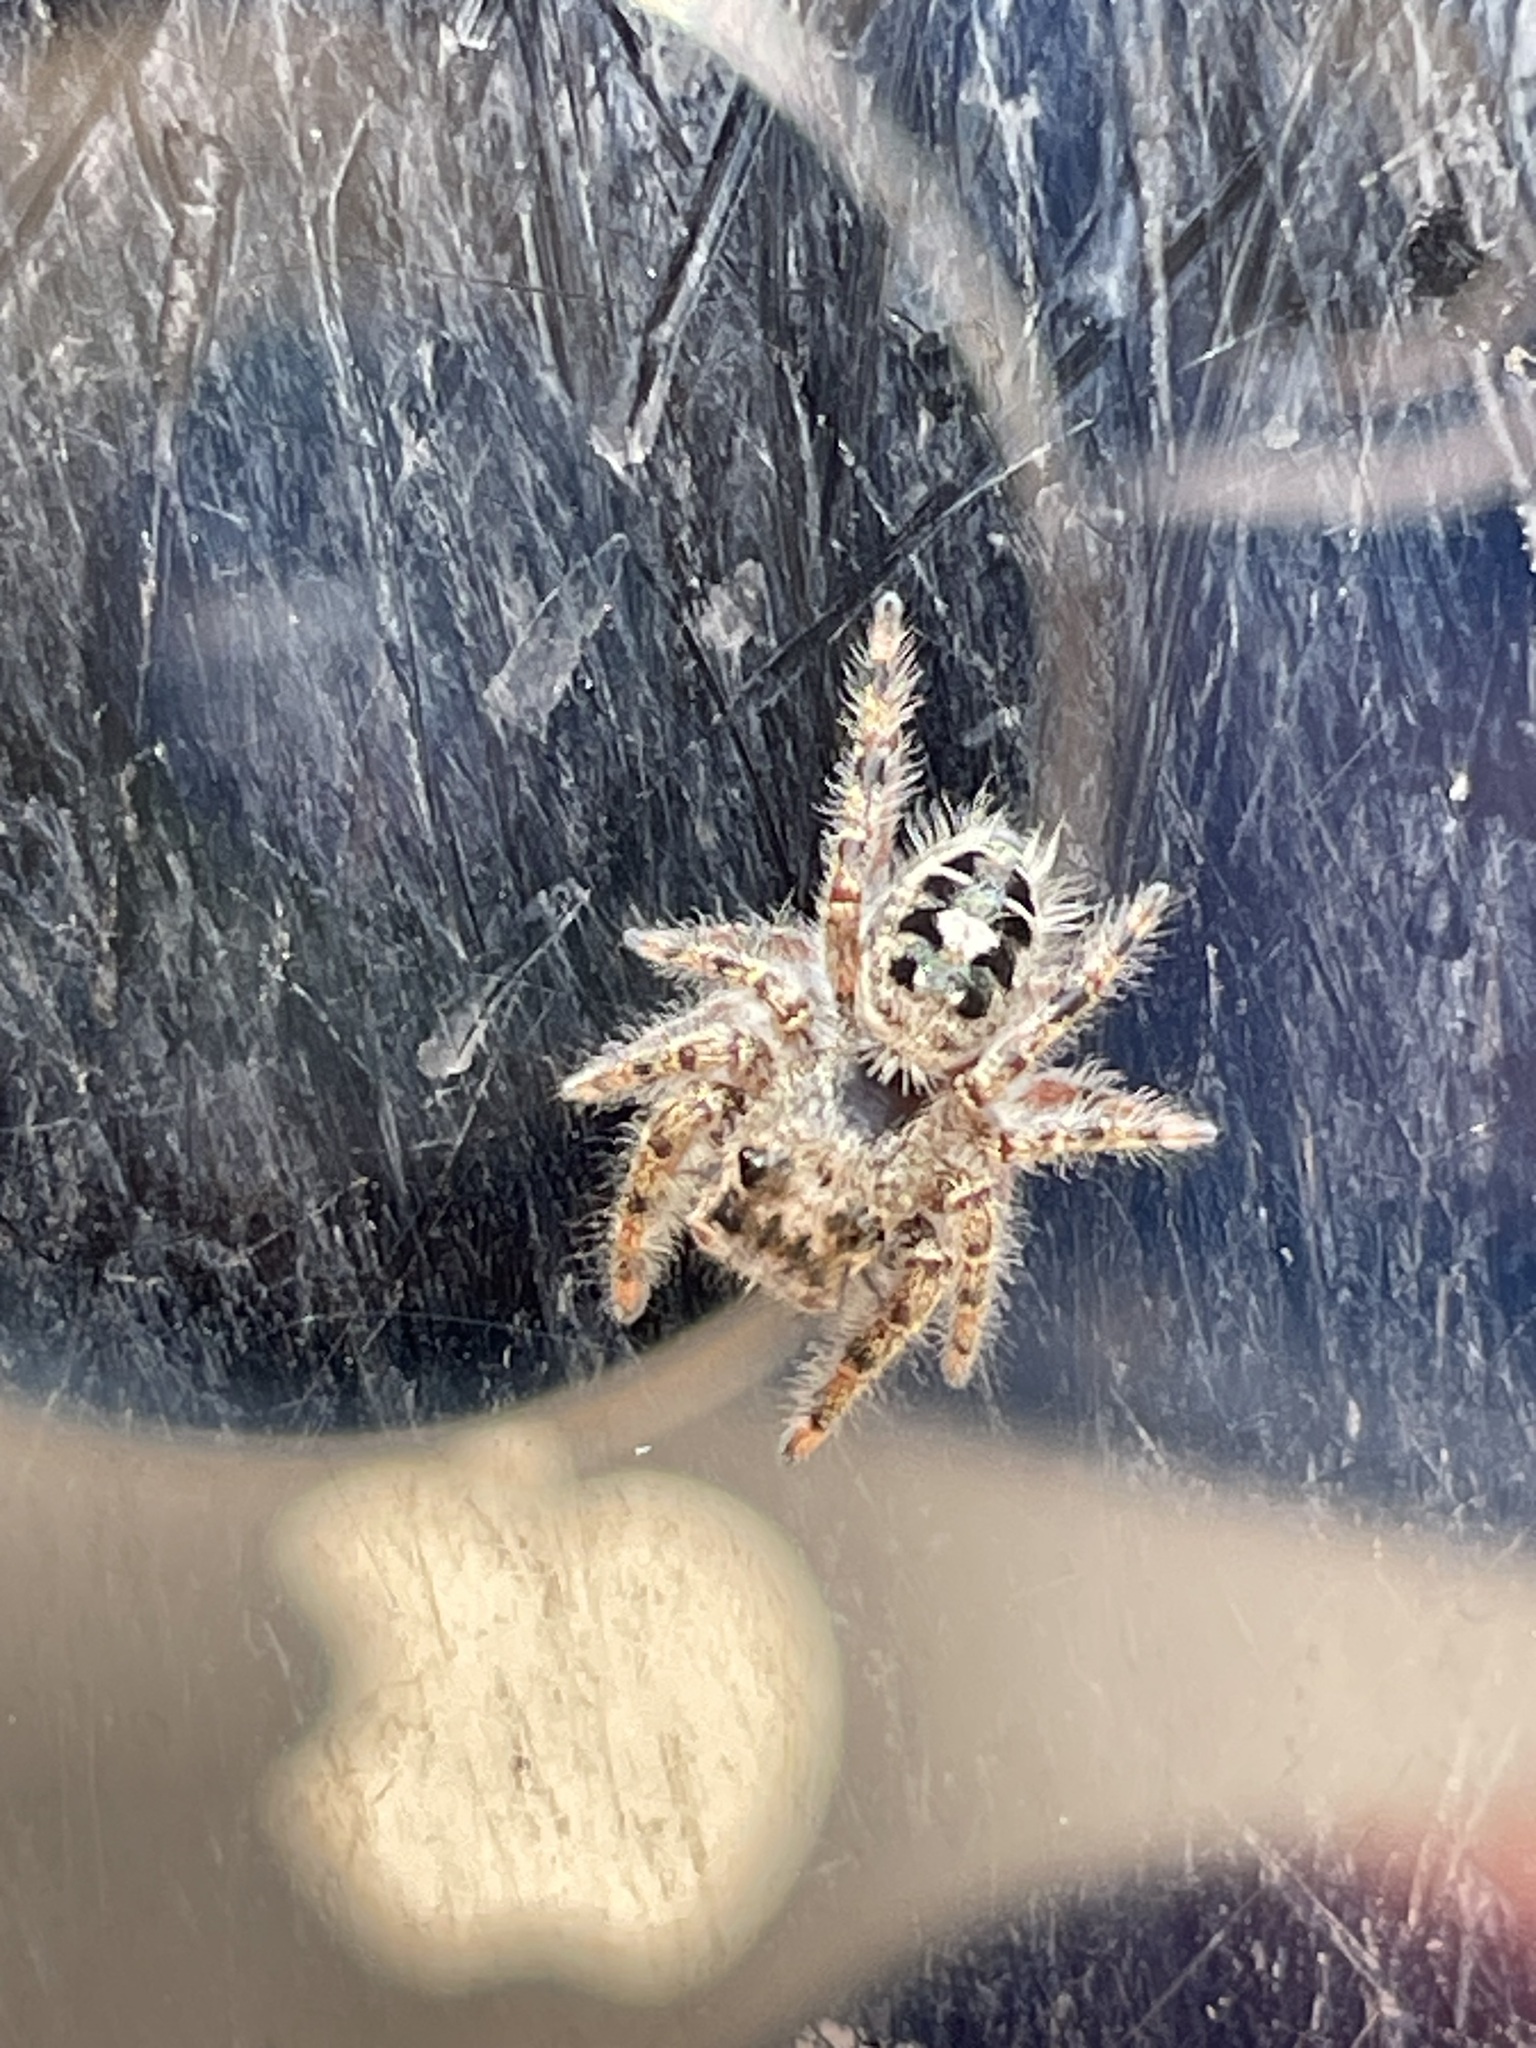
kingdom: Animalia
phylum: Arthropoda
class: Arachnida
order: Araneae
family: Salticidae
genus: Phidippus
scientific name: Phidippus putnami
